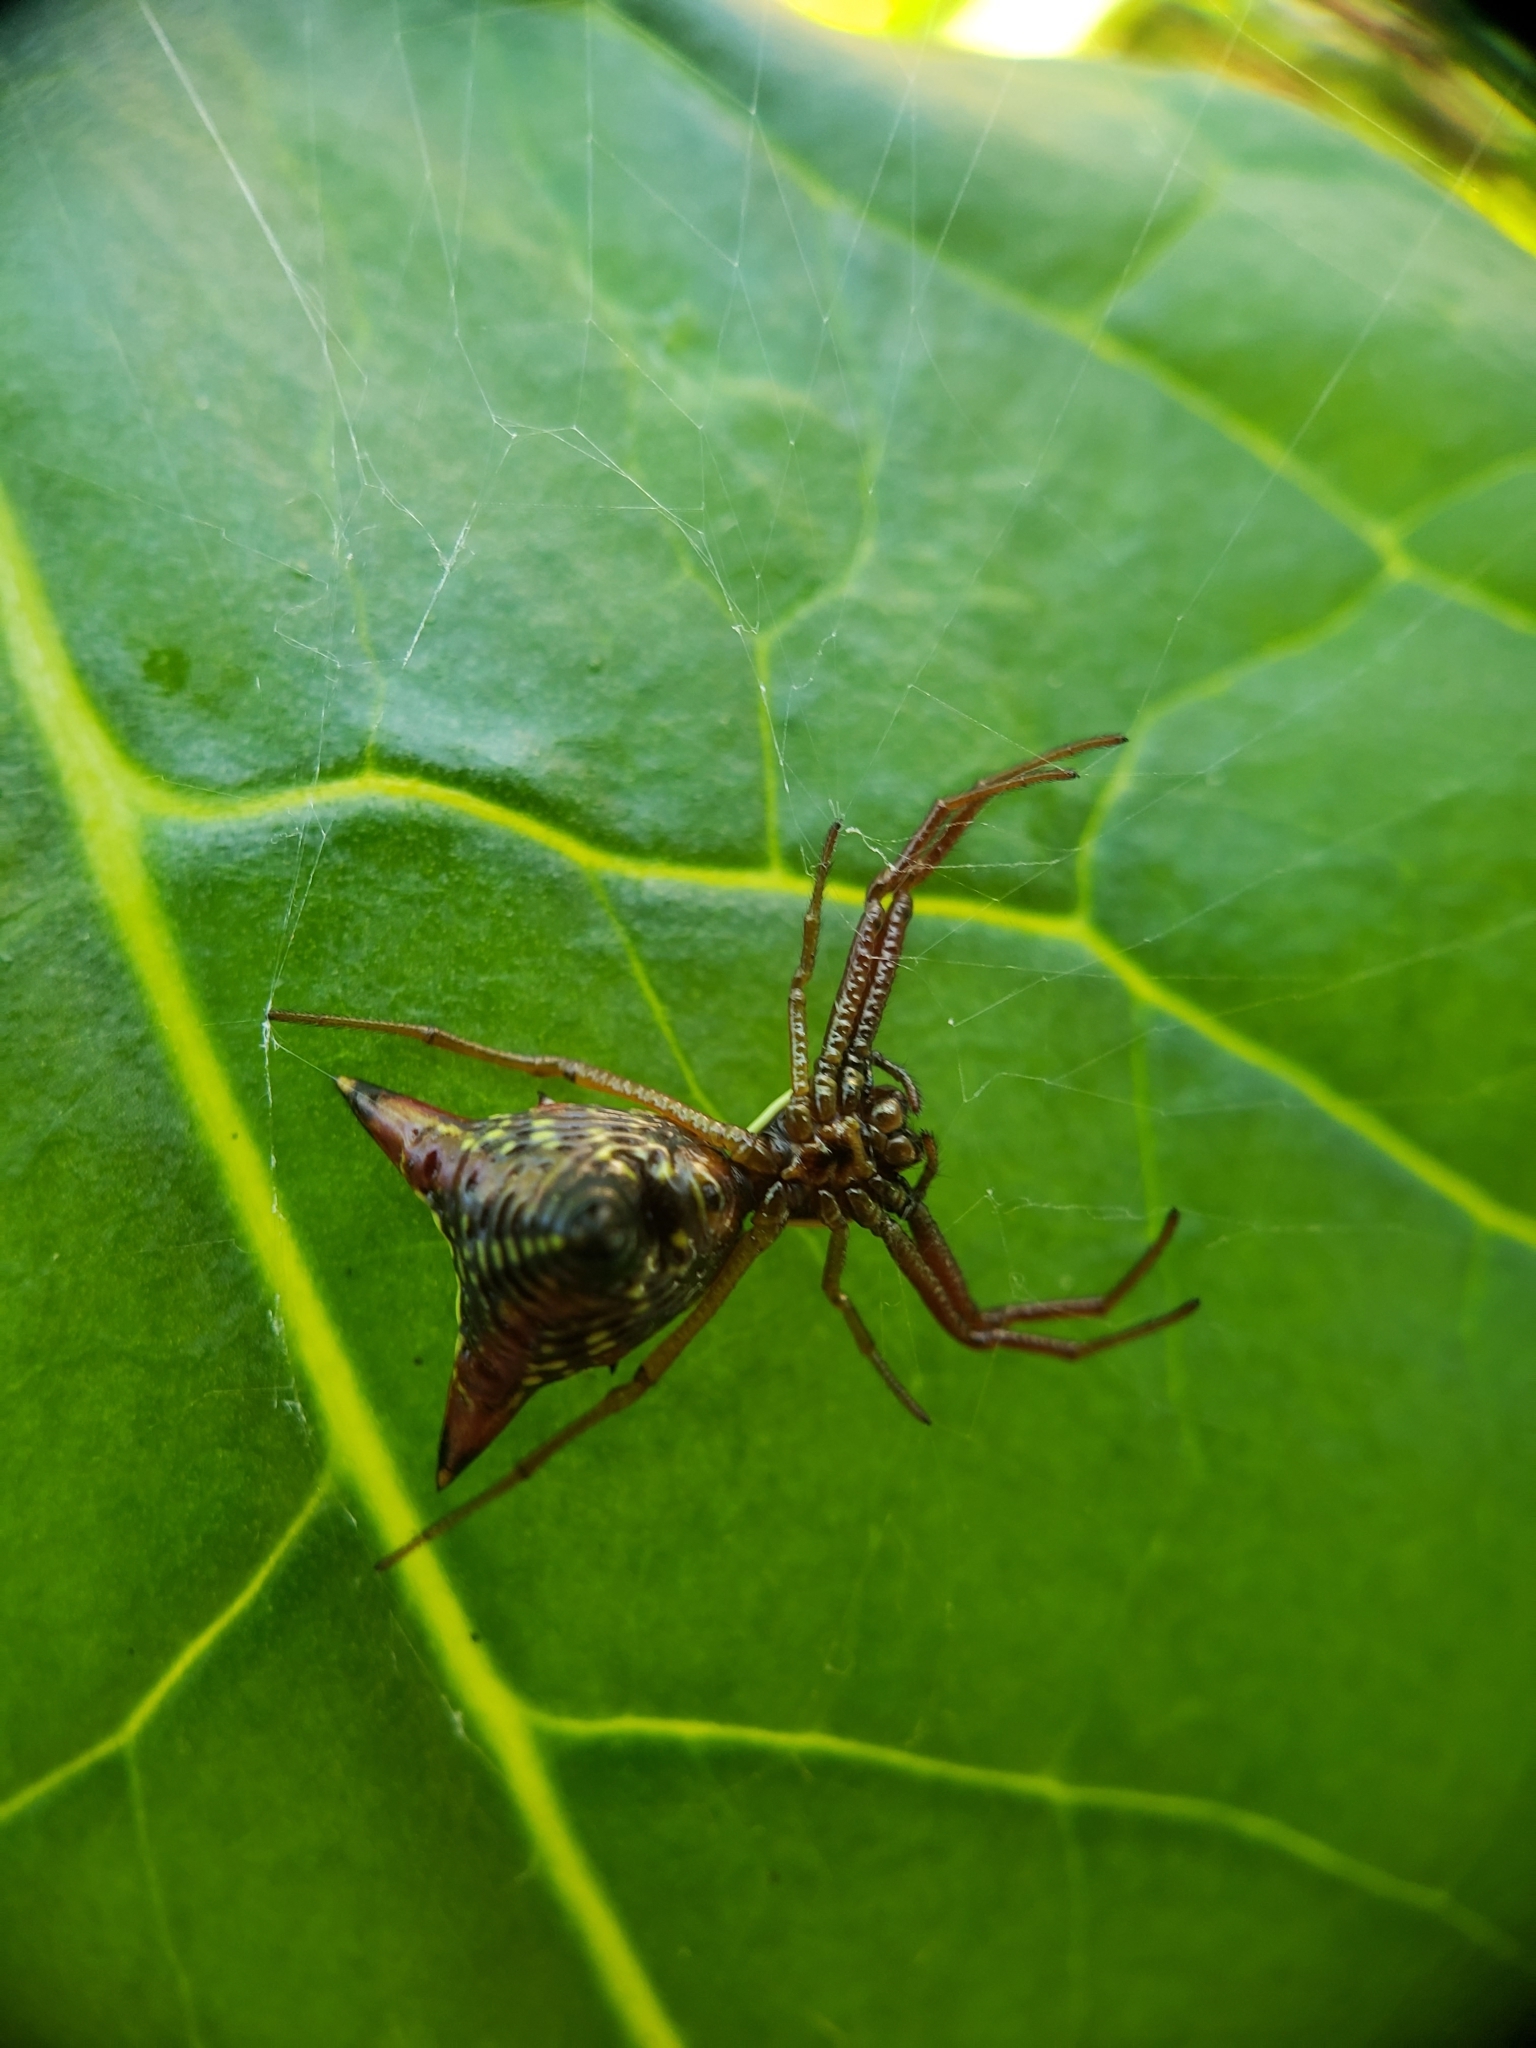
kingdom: Animalia
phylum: Arthropoda
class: Arachnida
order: Araneae
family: Araneidae
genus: Micrathena
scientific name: Micrathena sagittata
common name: Orb weavers
